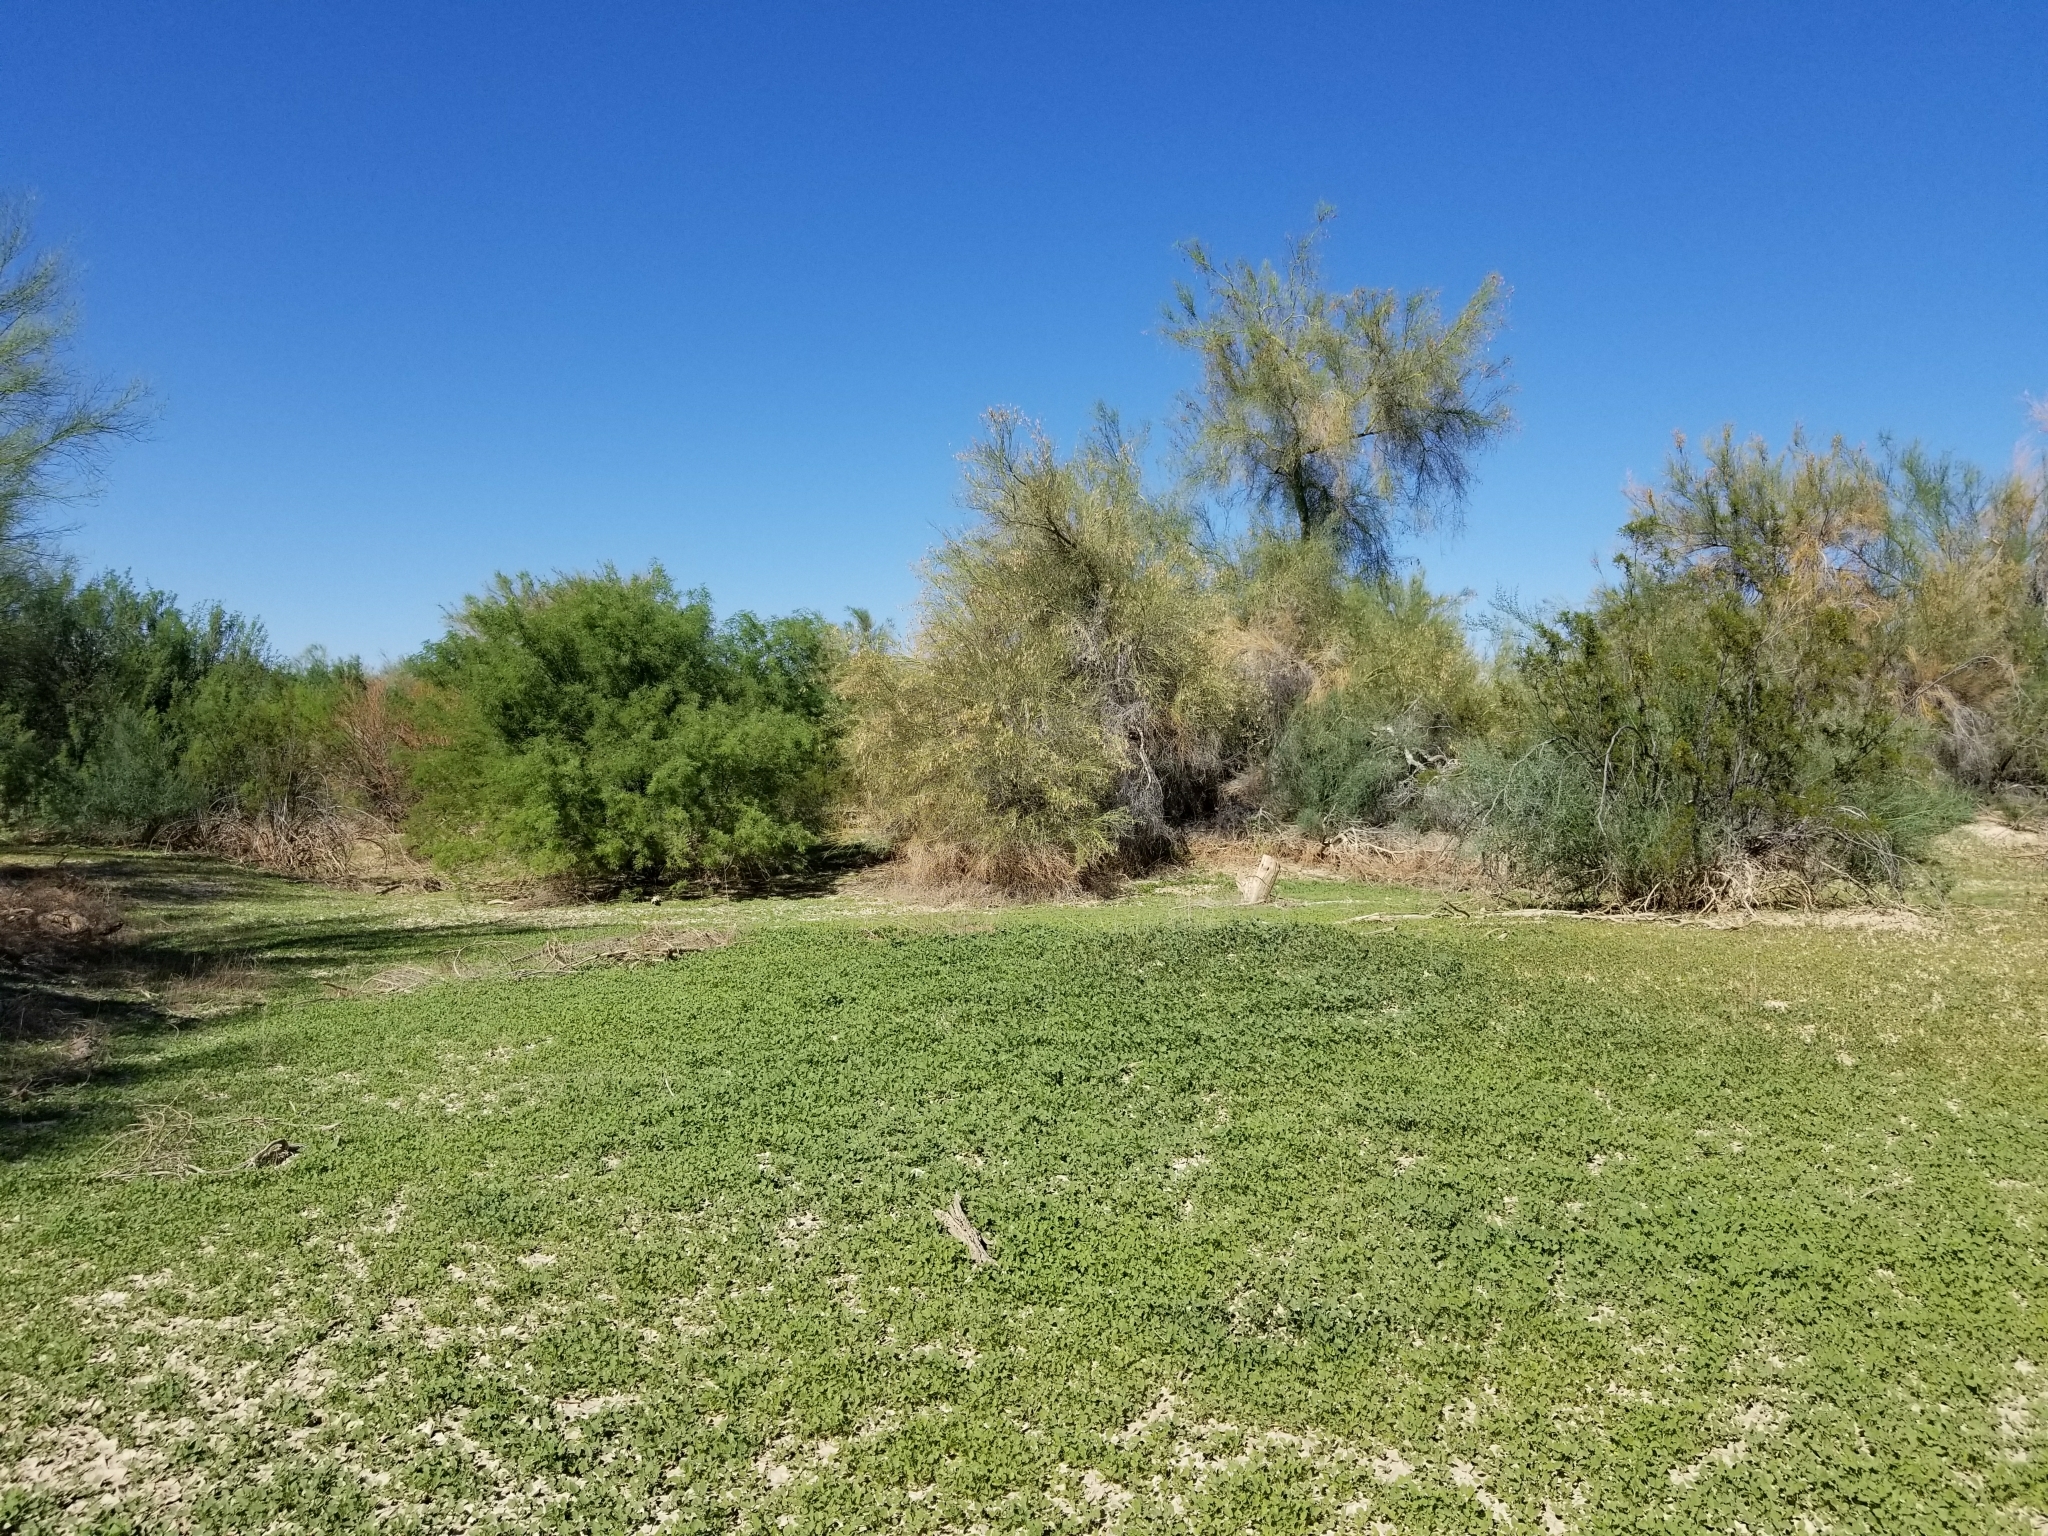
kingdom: Plantae
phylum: Tracheophyta
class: Magnoliopsida
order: Fabales
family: Fabaceae
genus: Parkinsonia
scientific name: Parkinsonia florida
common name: Blue paloverde
